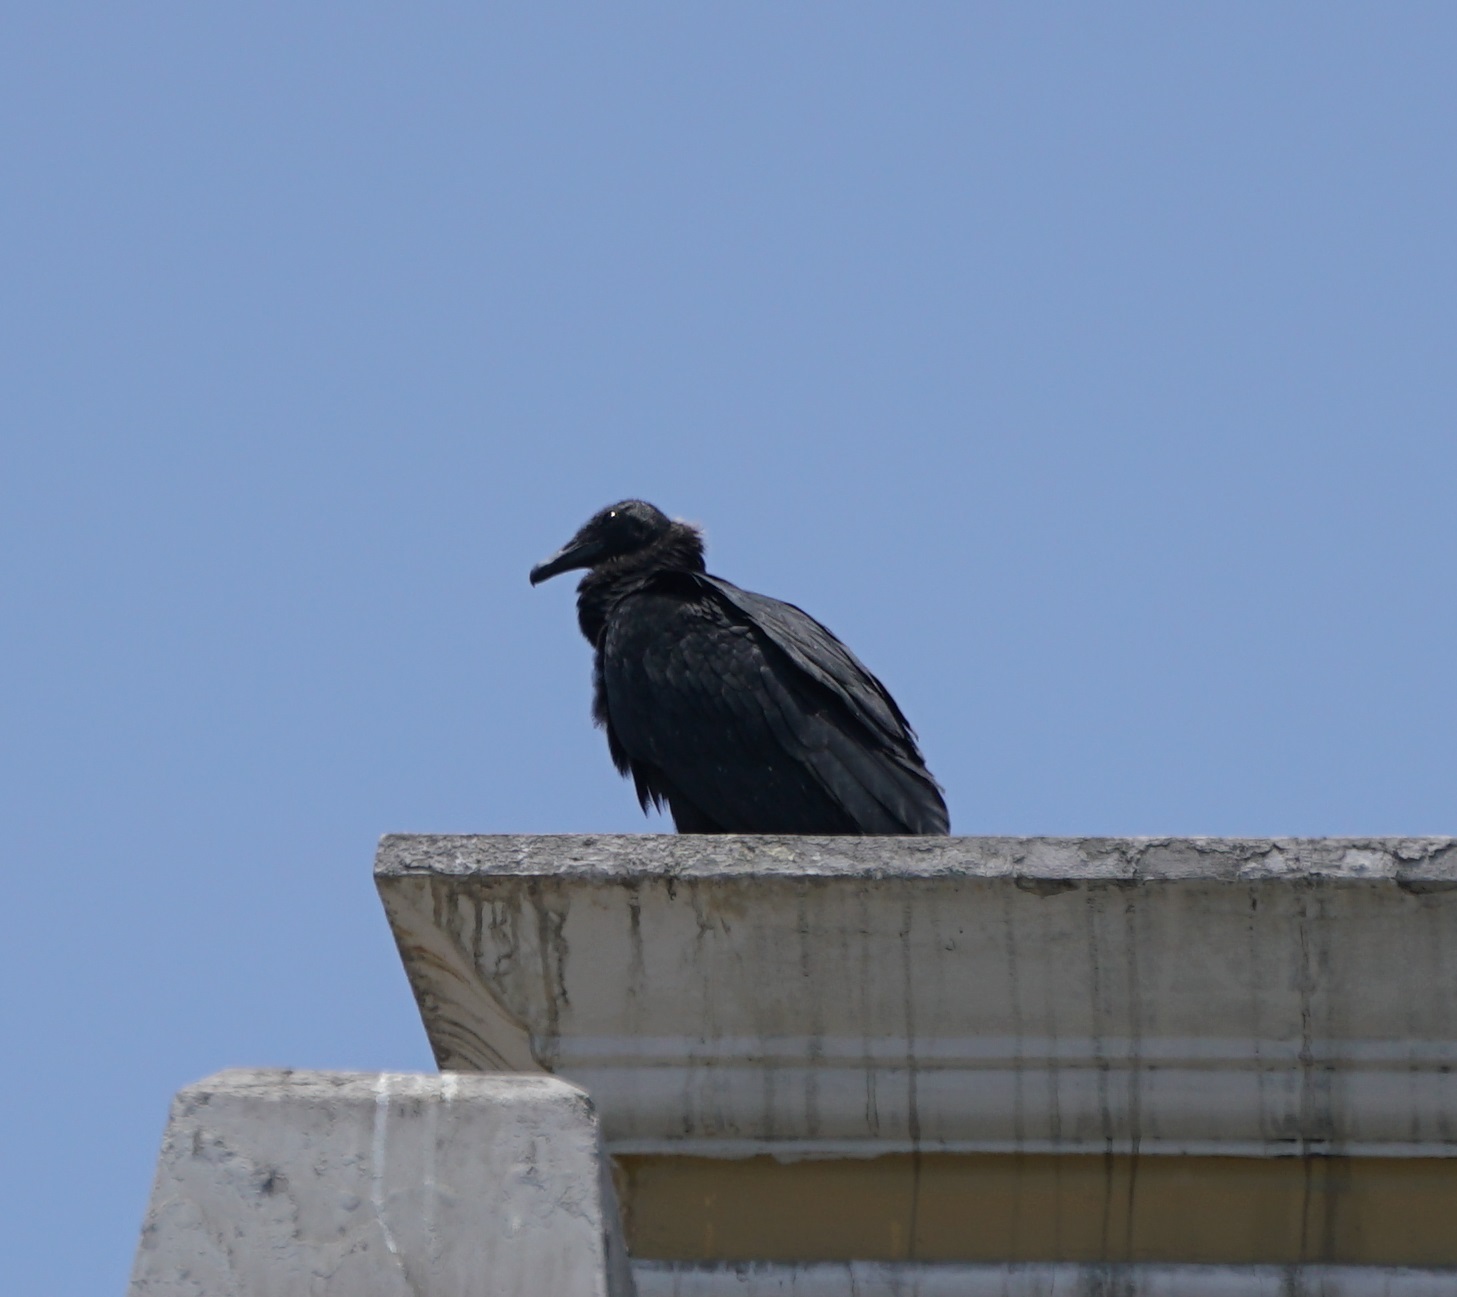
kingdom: Animalia
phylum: Chordata
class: Aves
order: Accipitriformes
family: Cathartidae
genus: Coragyps
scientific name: Coragyps atratus
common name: Black vulture
